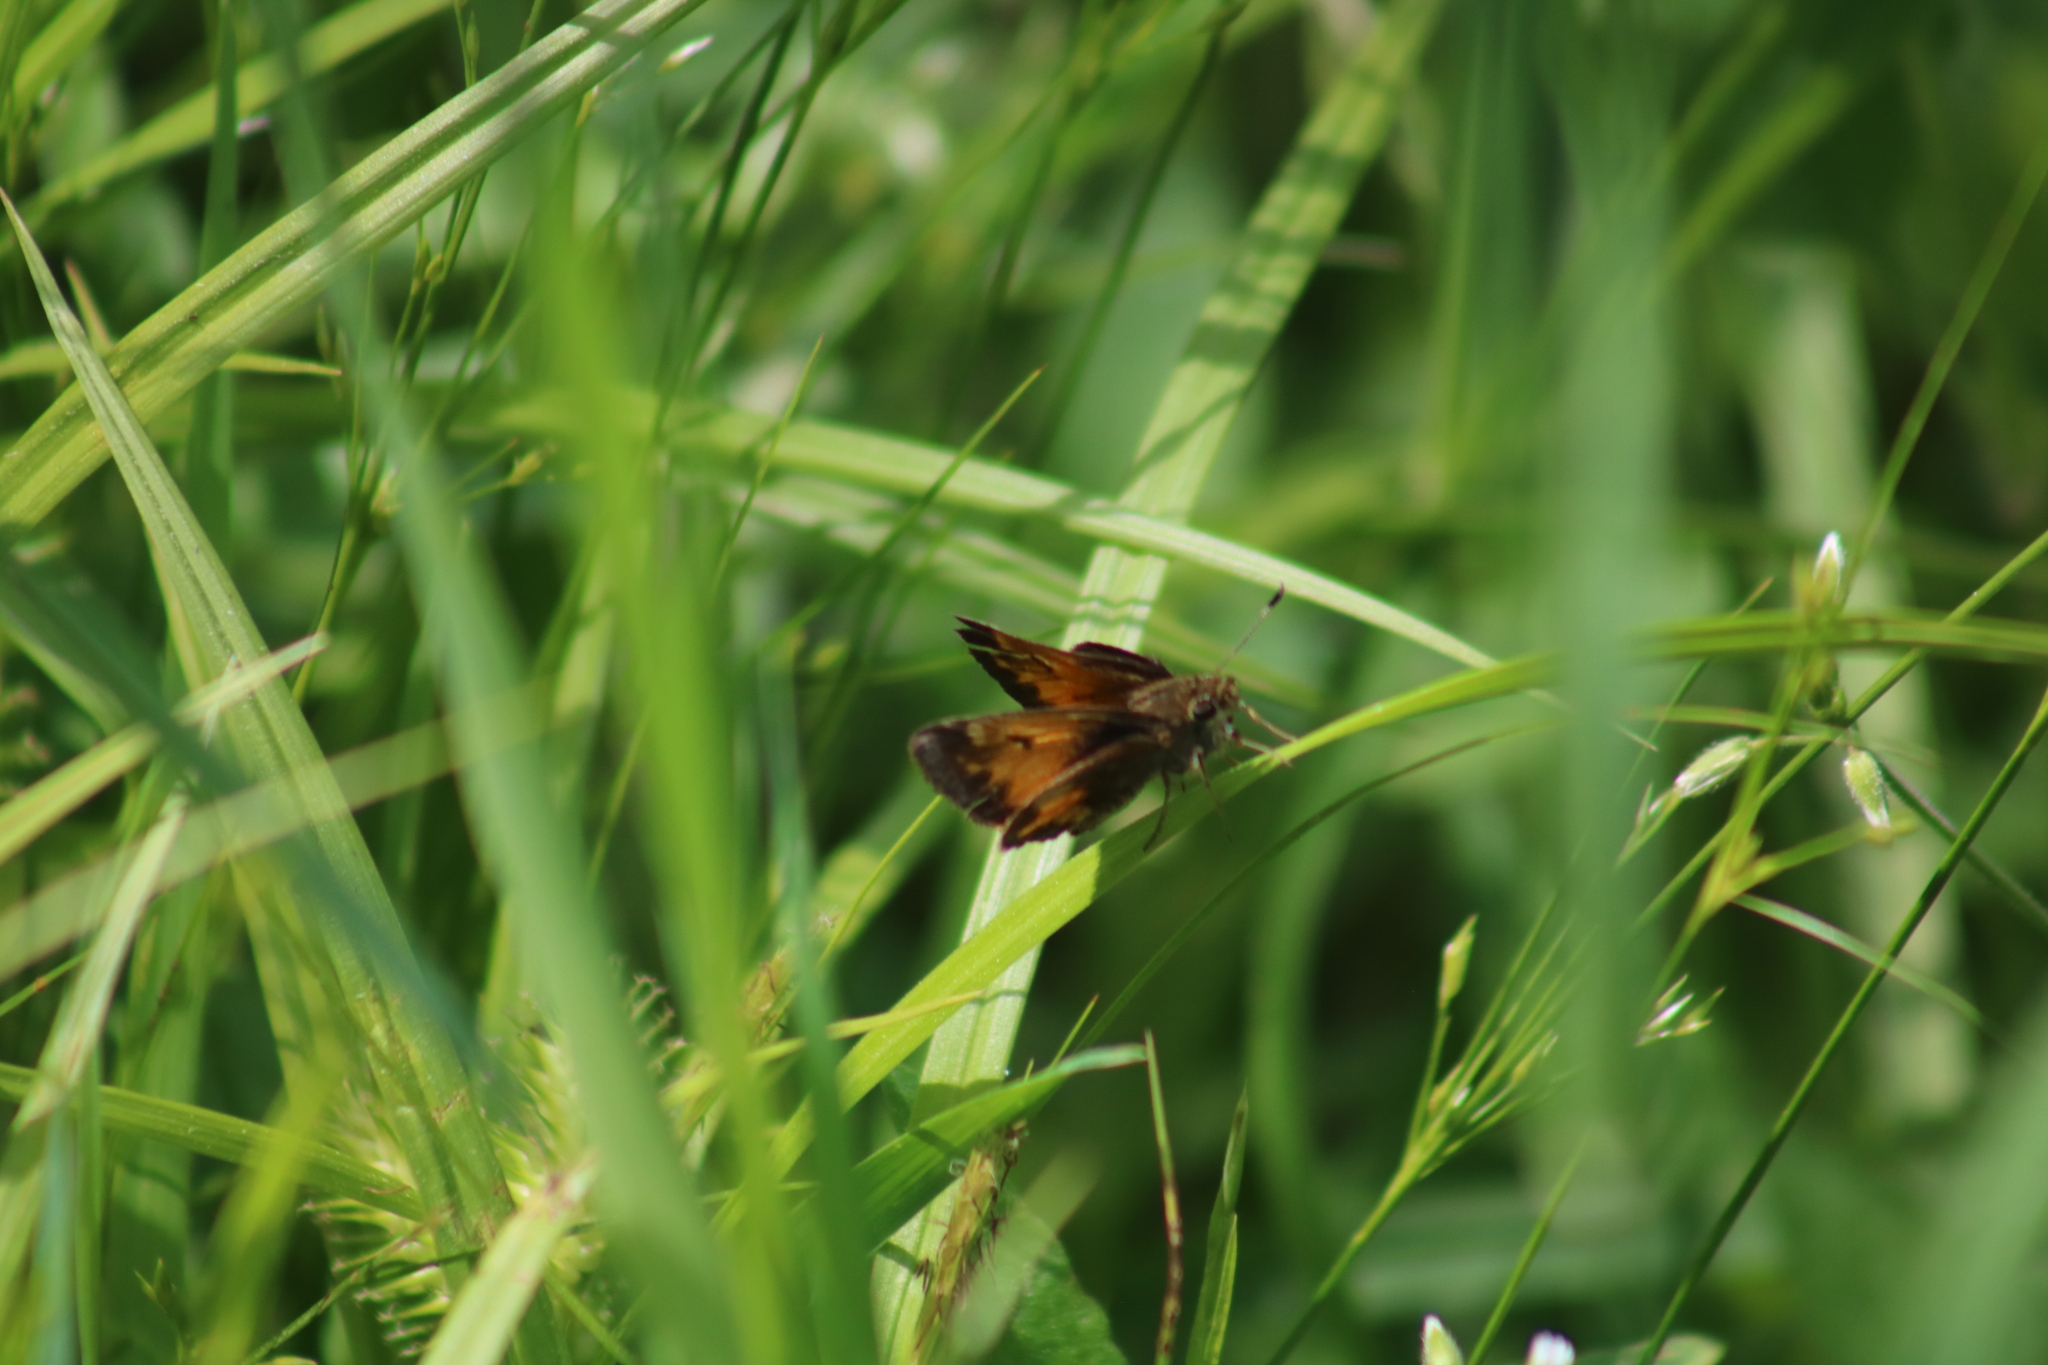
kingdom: Animalia
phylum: Arthropoda
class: Insecta
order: Lepidoptera
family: Hesperiidae
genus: Lon
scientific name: Lon hobomok
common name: Hobomok skipper
